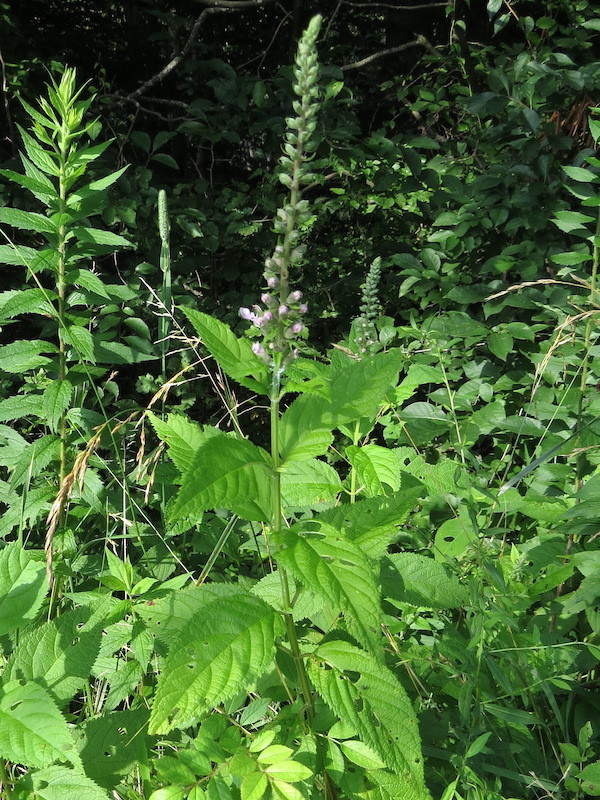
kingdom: Plantae
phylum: Tracheophyta
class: Magnoliopsida
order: Lamiales
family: Lamiaceae
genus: Teucrium
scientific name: Teucrium canadense
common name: American germander
